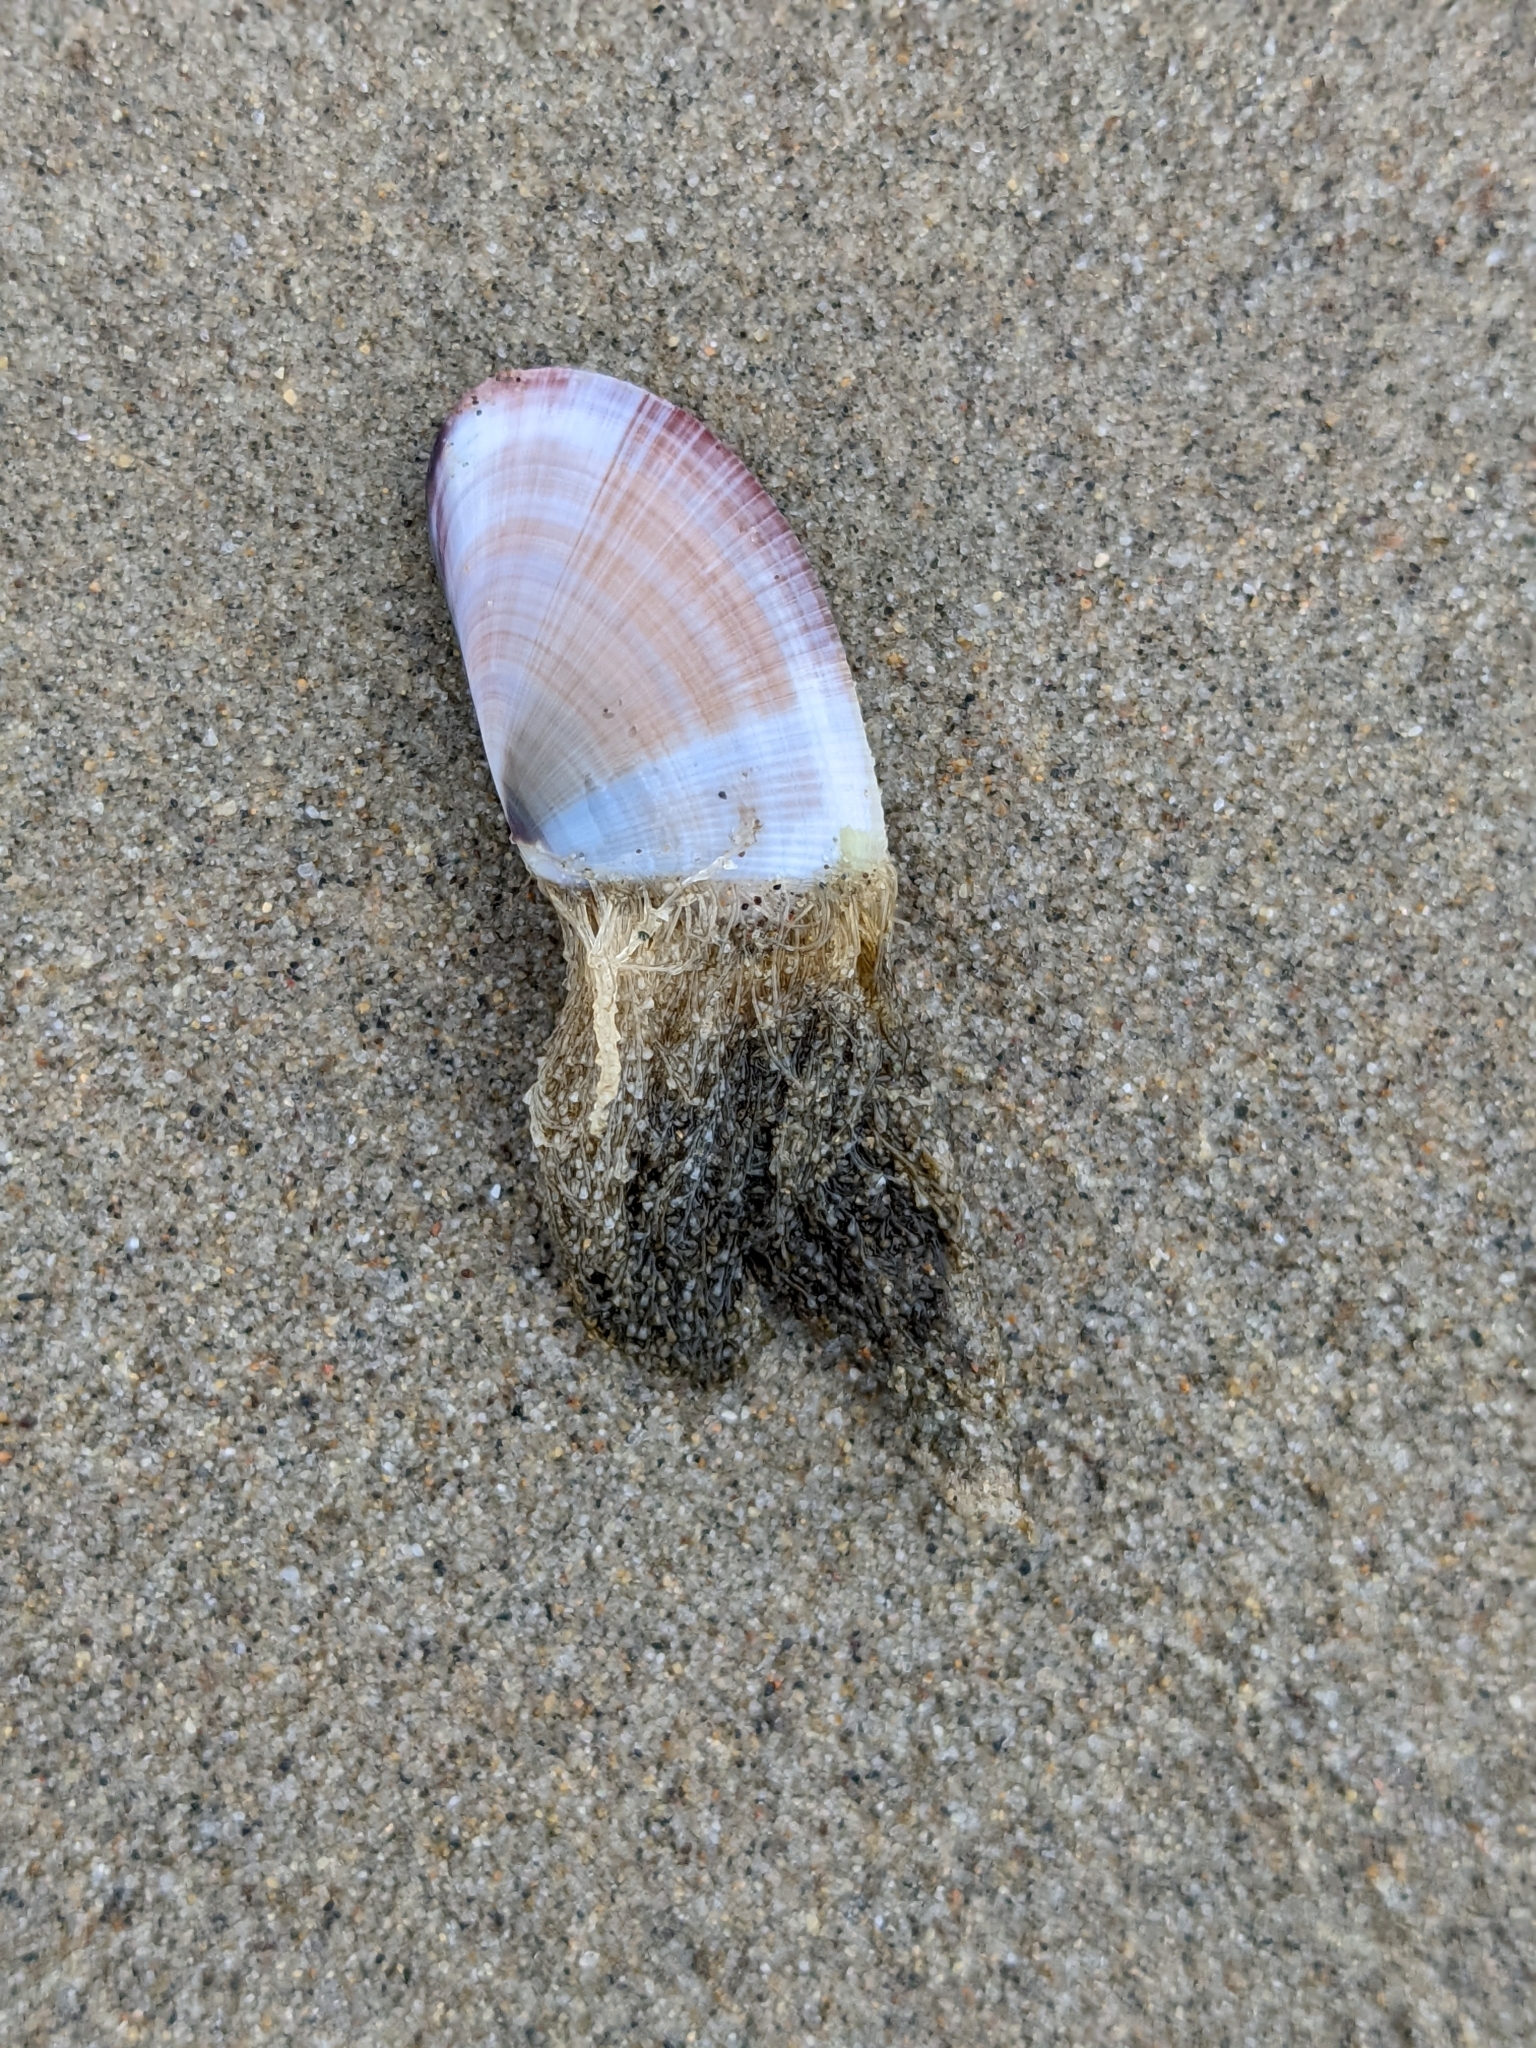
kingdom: Animalia
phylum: Mollusca
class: Bivalvia
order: Cardiida
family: Donacidae
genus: Donax
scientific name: Donax gouldii
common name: Gould beanclam
